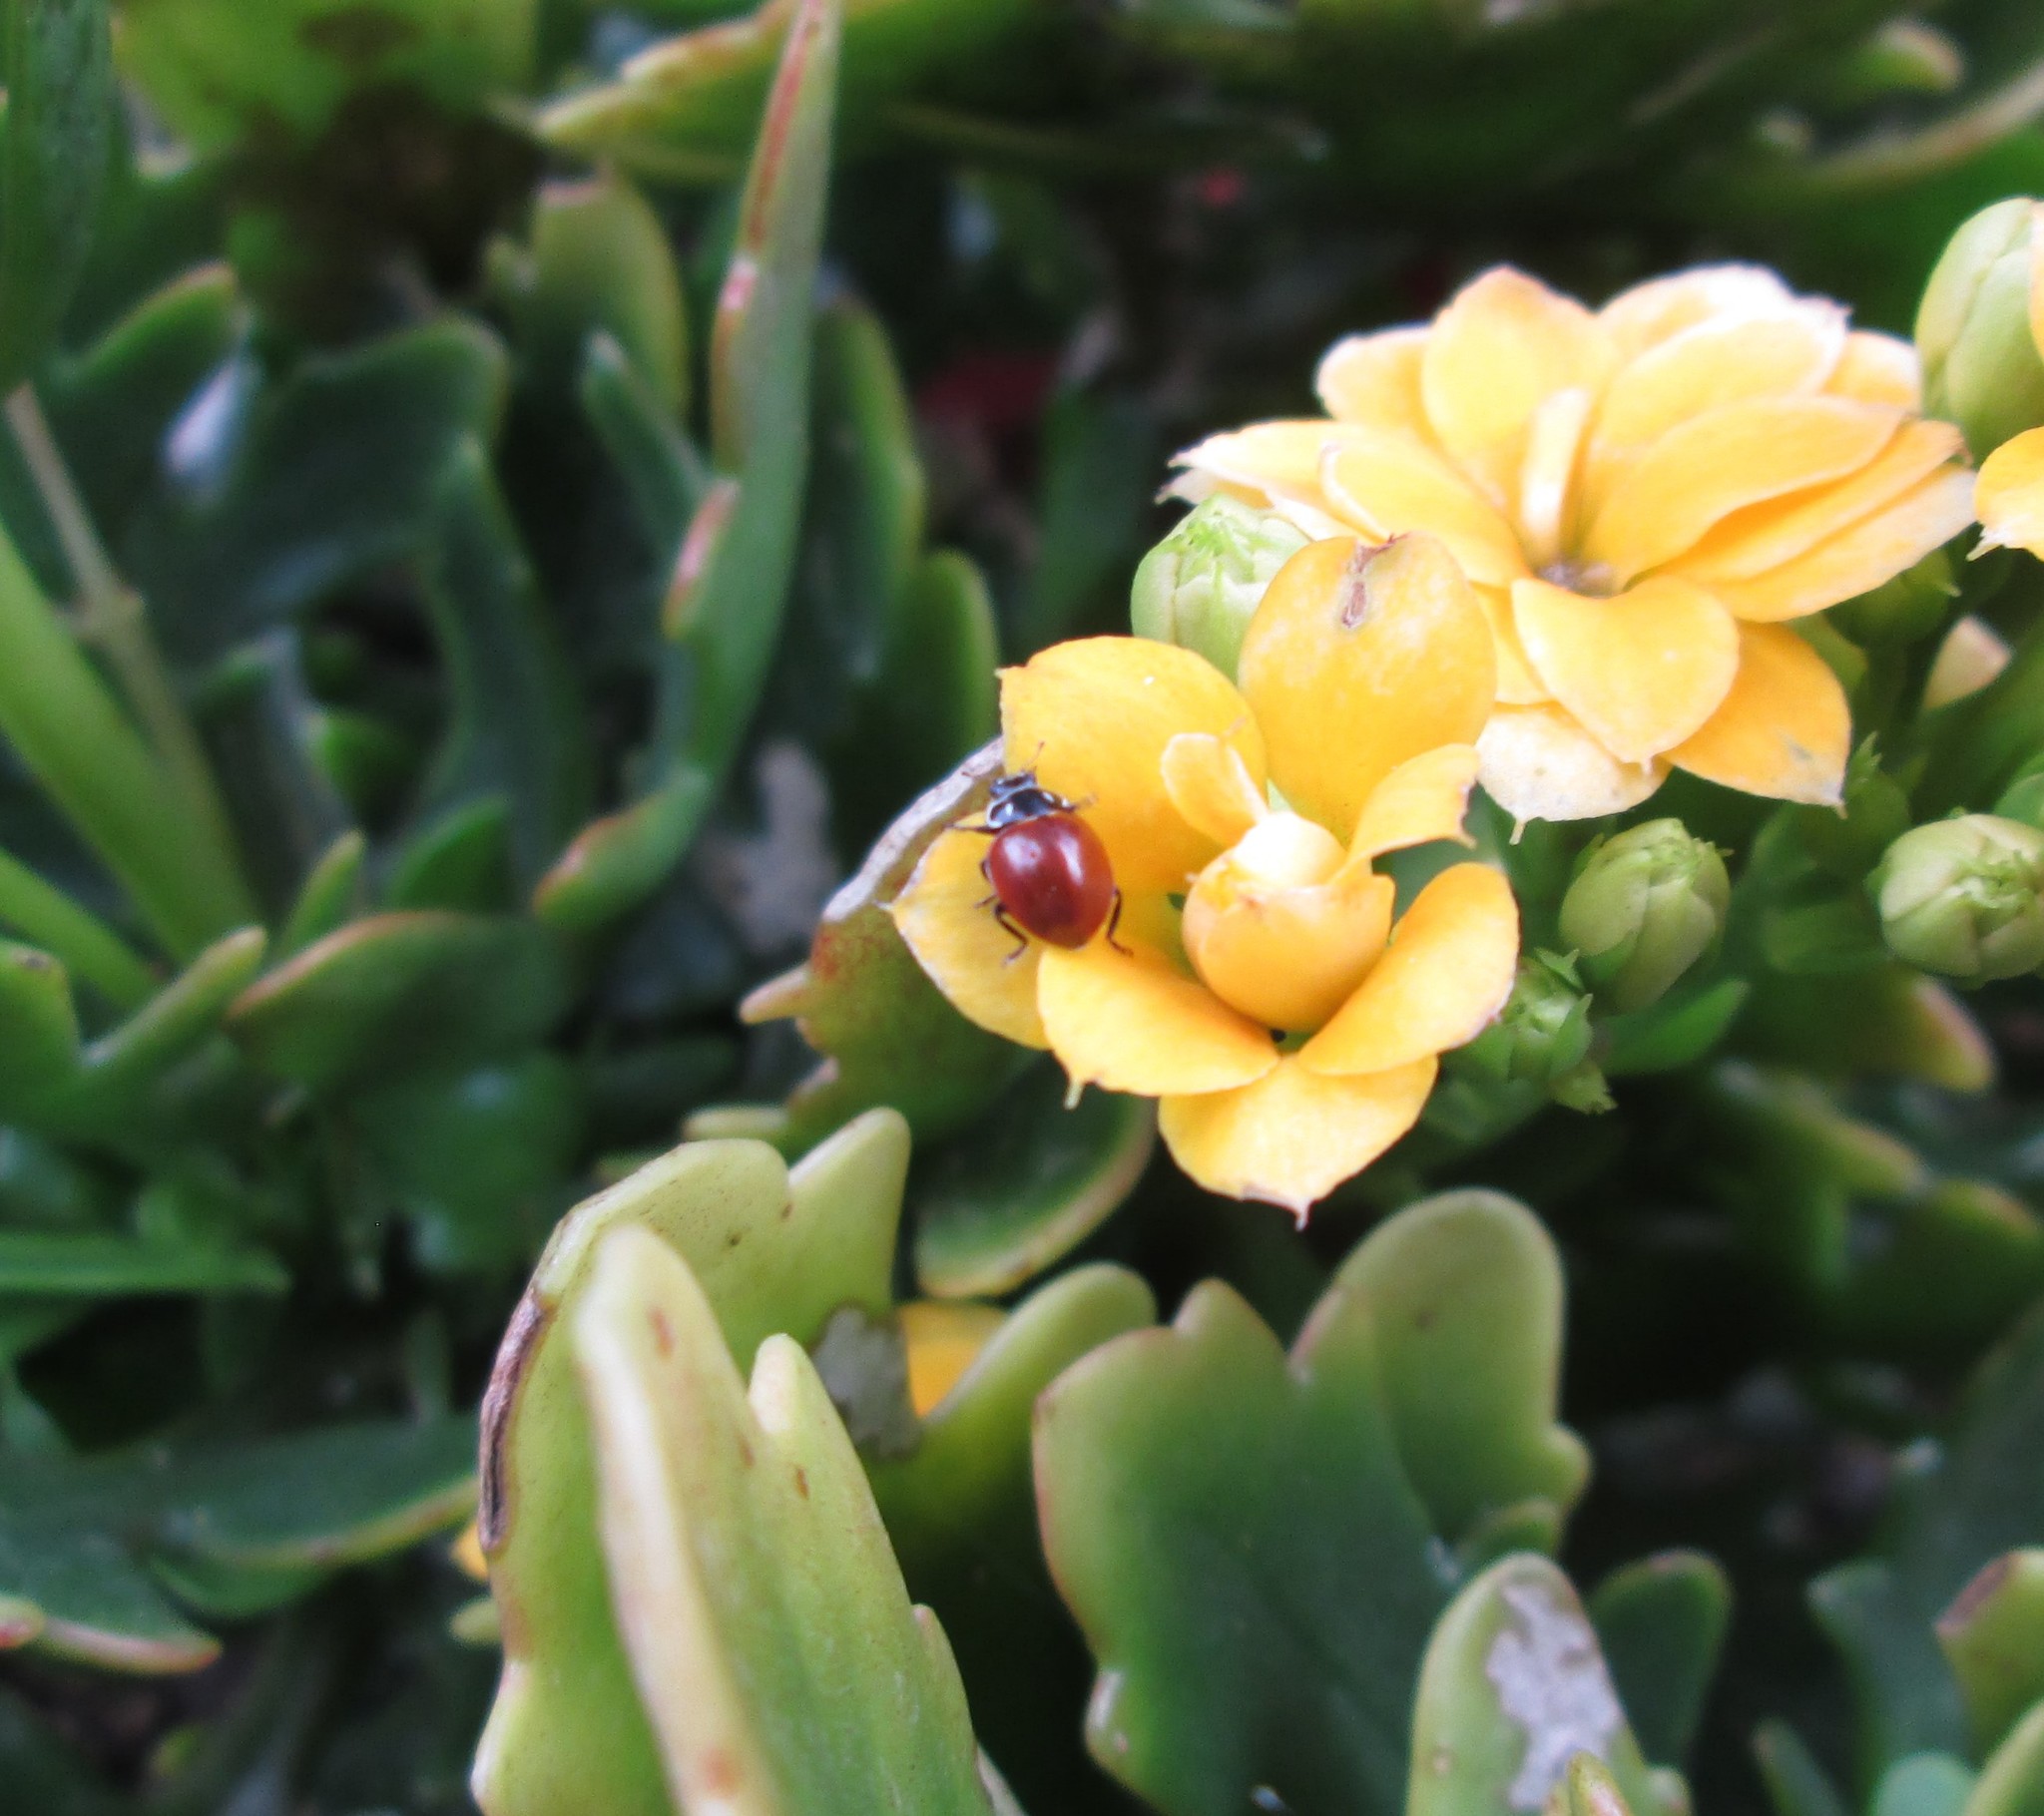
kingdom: Animalia
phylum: Arthropoda
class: Insecta
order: Coleoptera
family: Coccinellidae
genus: Cycloneda
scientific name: Cycloneda emarginata
